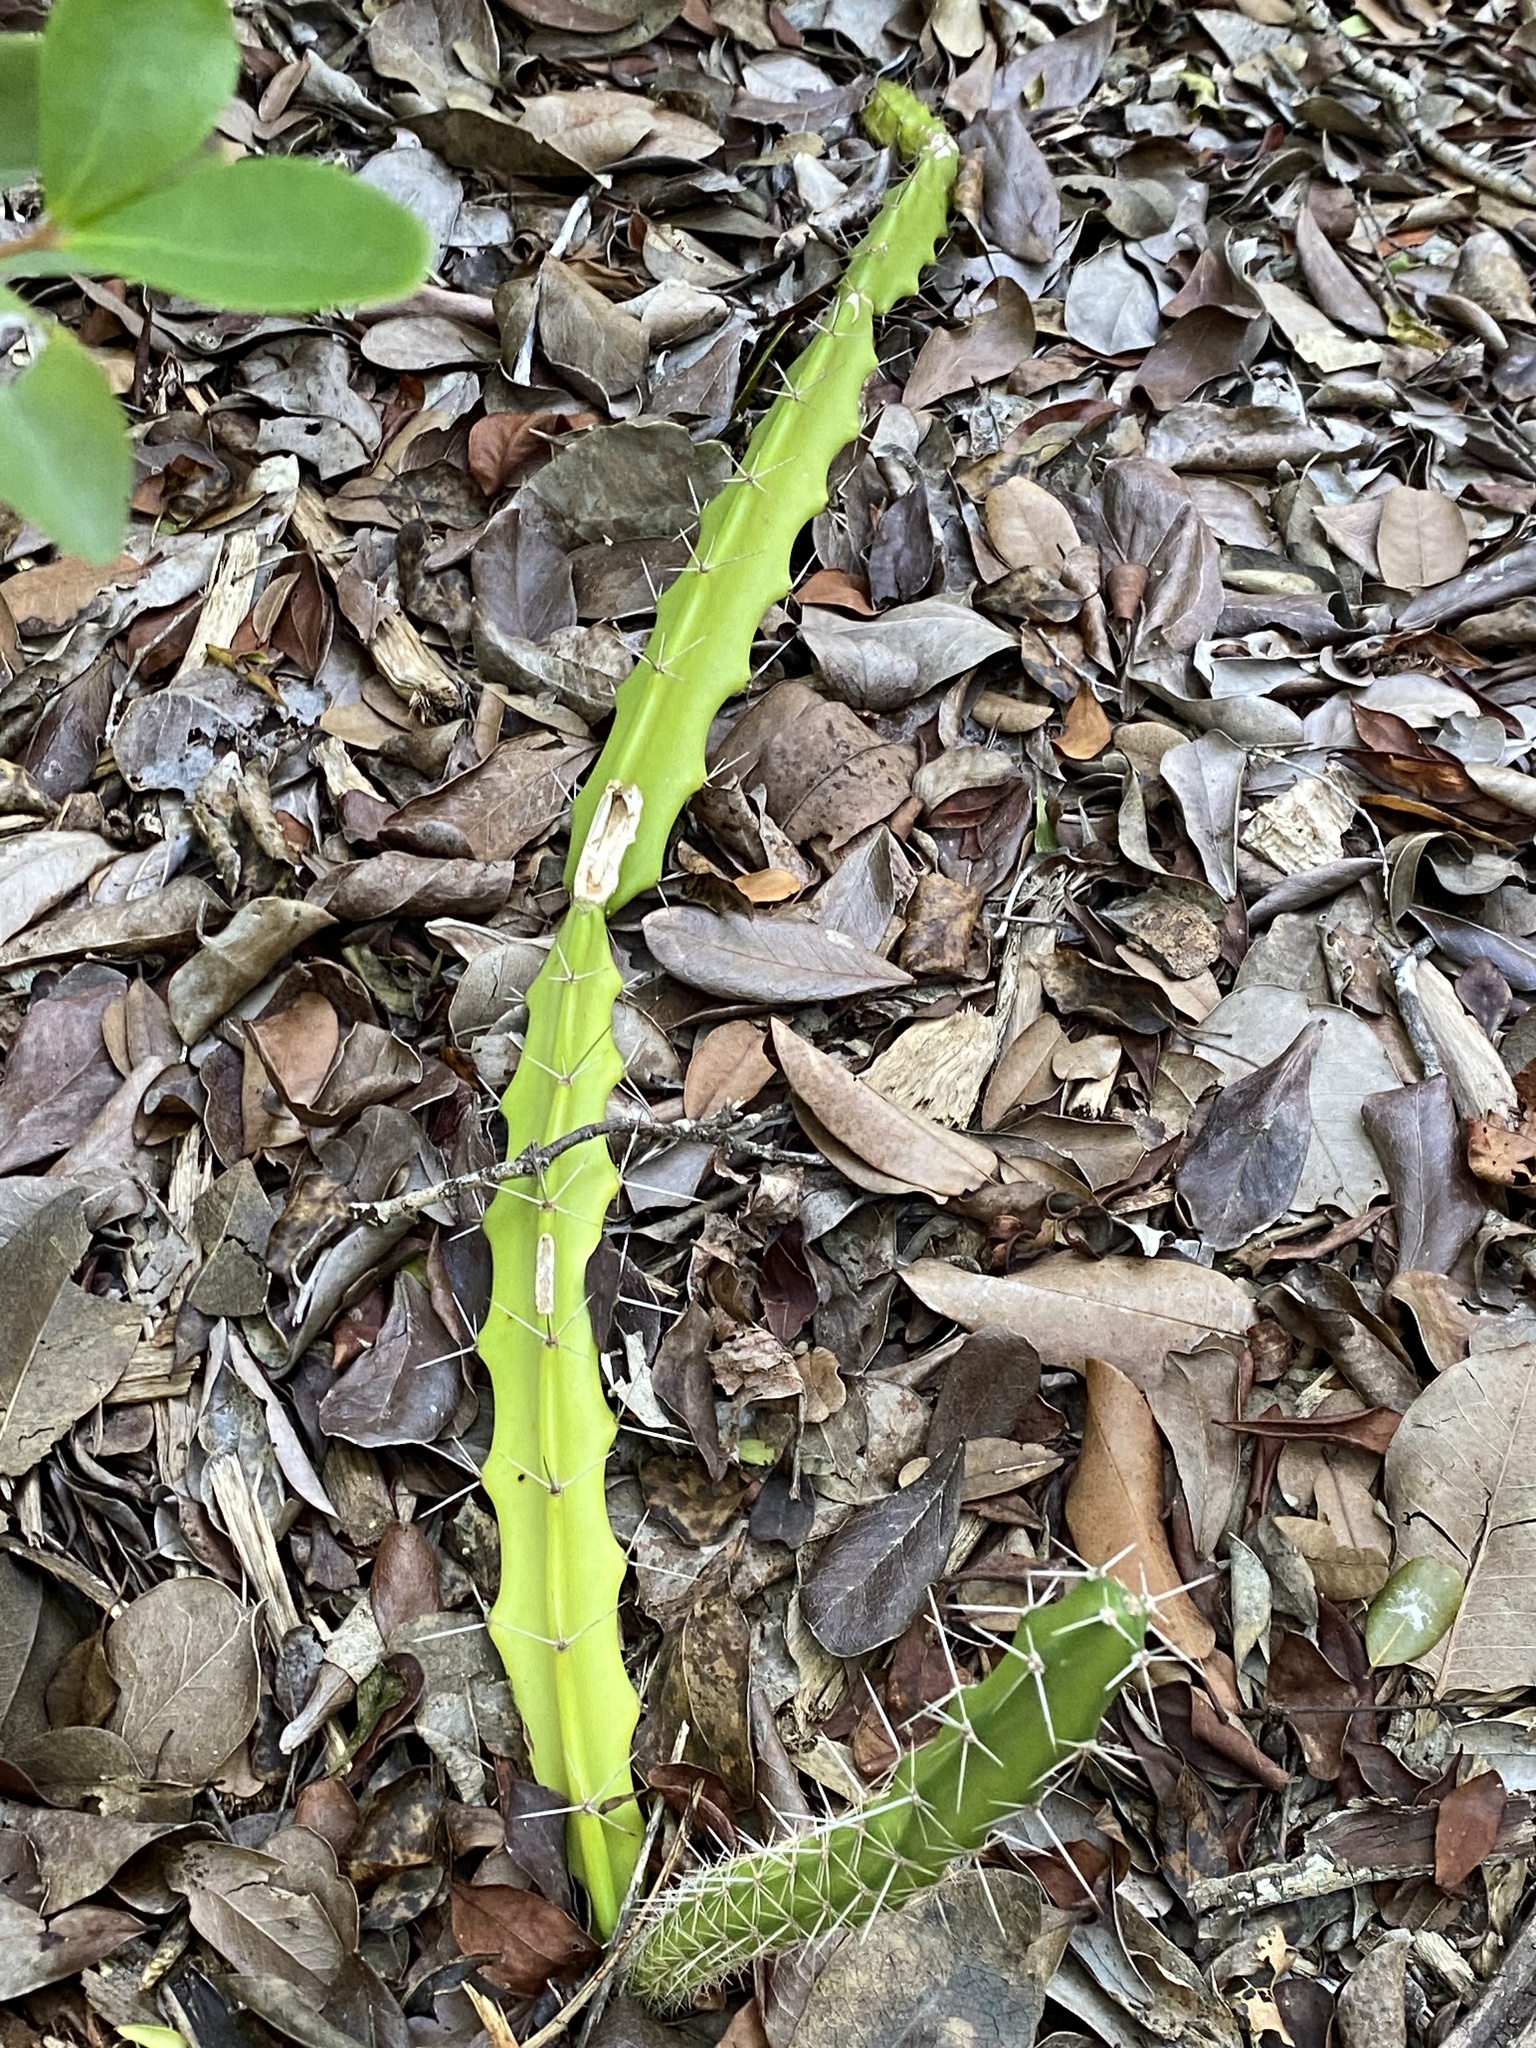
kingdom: Plantae
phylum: Tracheophyta
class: Magnoliopsida
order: Caryophyllales
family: Cactaceae
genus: Acanthocereus
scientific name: Acanthocereus tetragonus
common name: Triangle cactus
